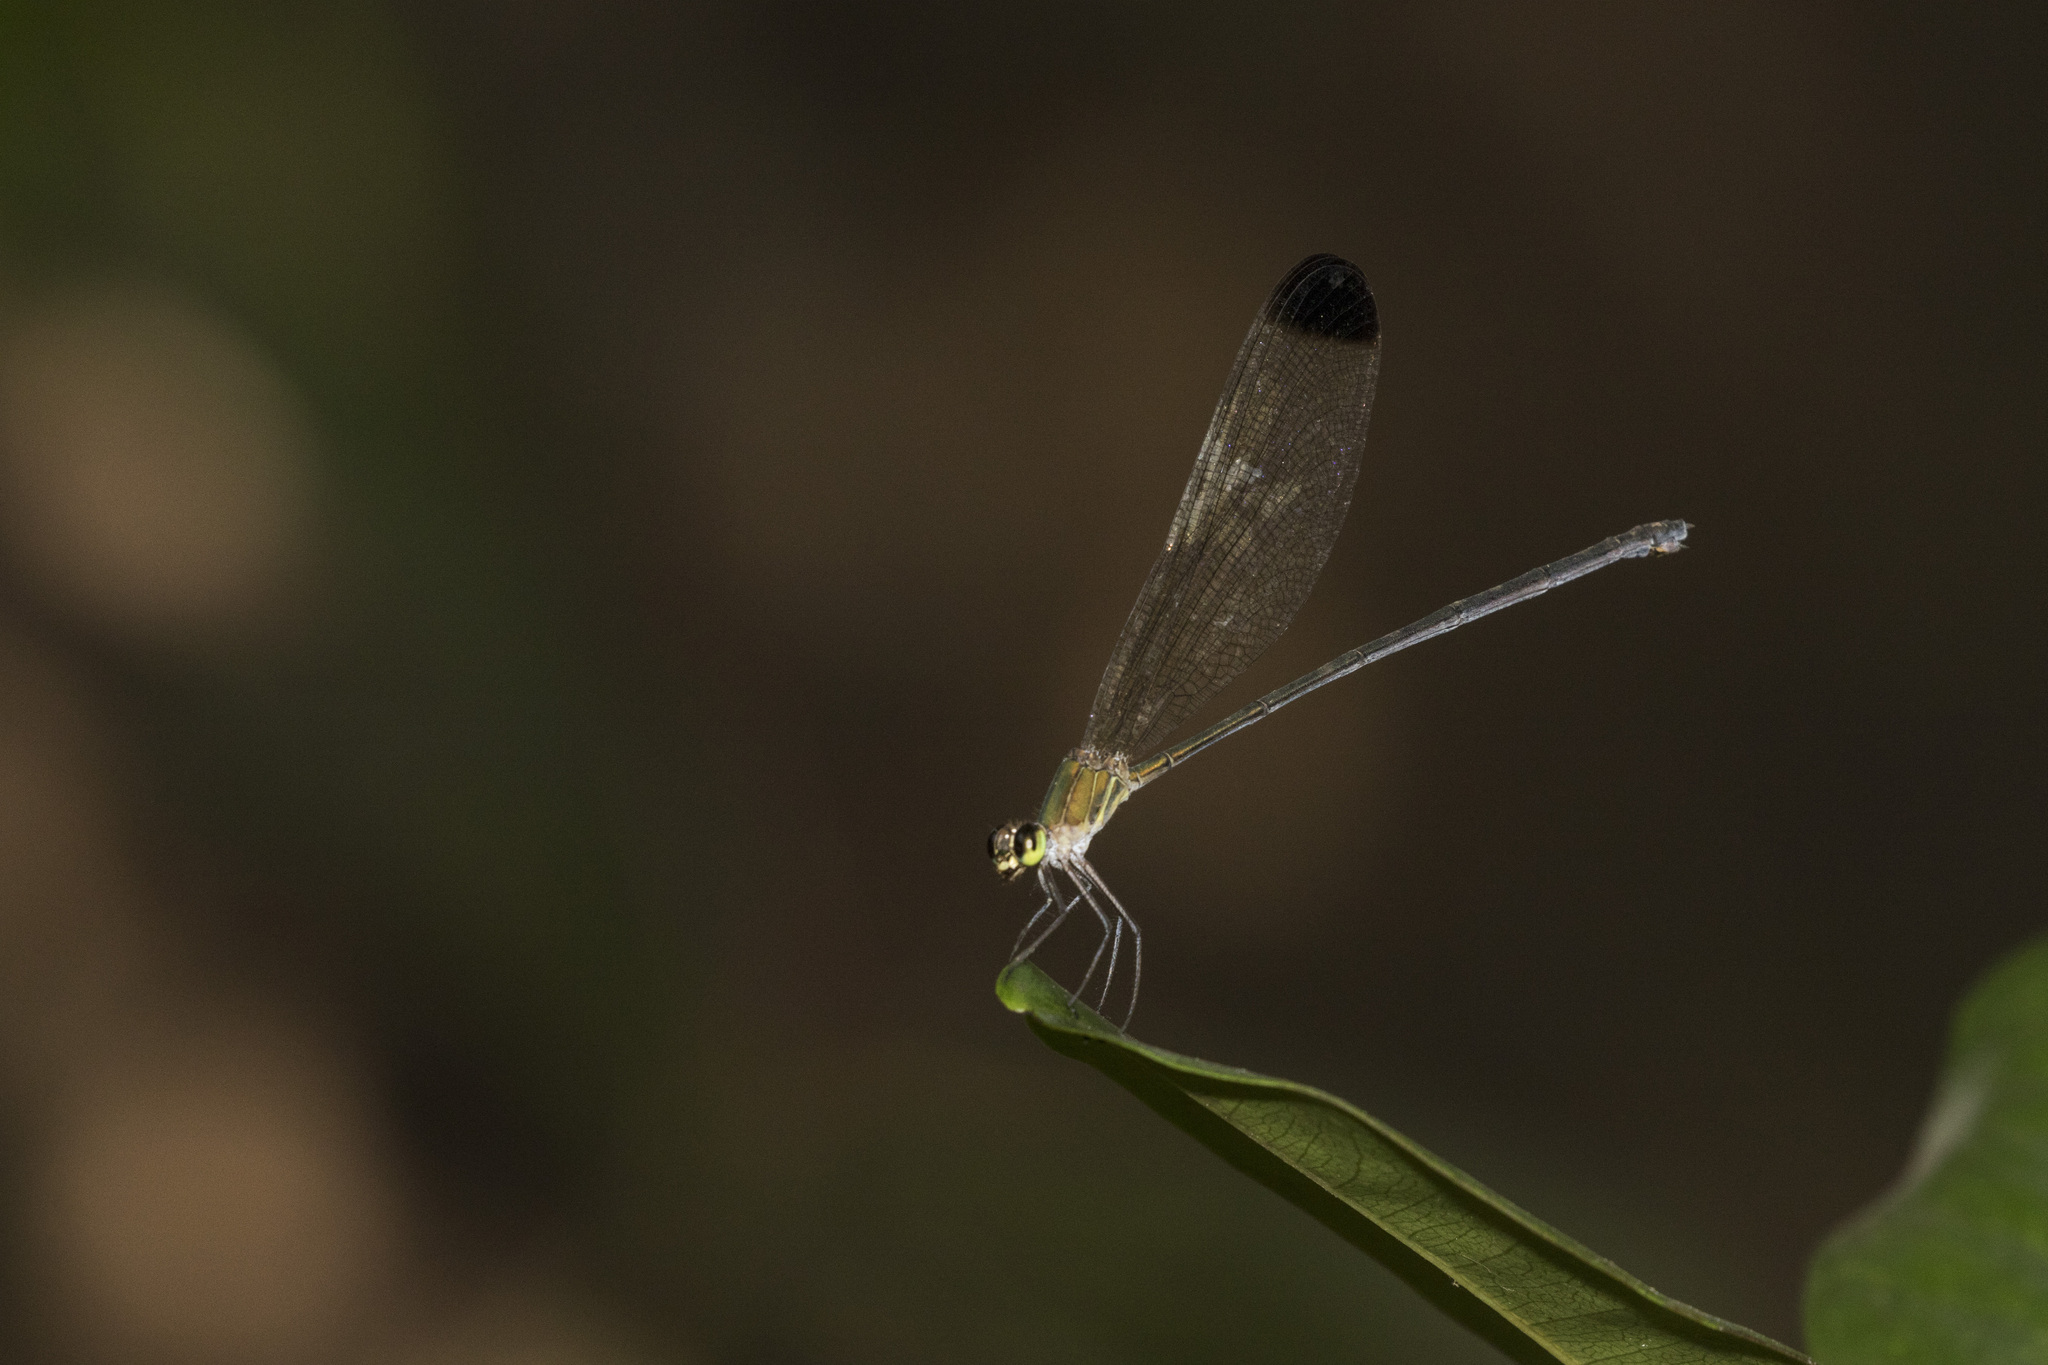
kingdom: Animalia
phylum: Arthropoda
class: Insecta
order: Odonata
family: Calopterygidae
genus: Vestalis
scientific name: Vestalis apicalis
